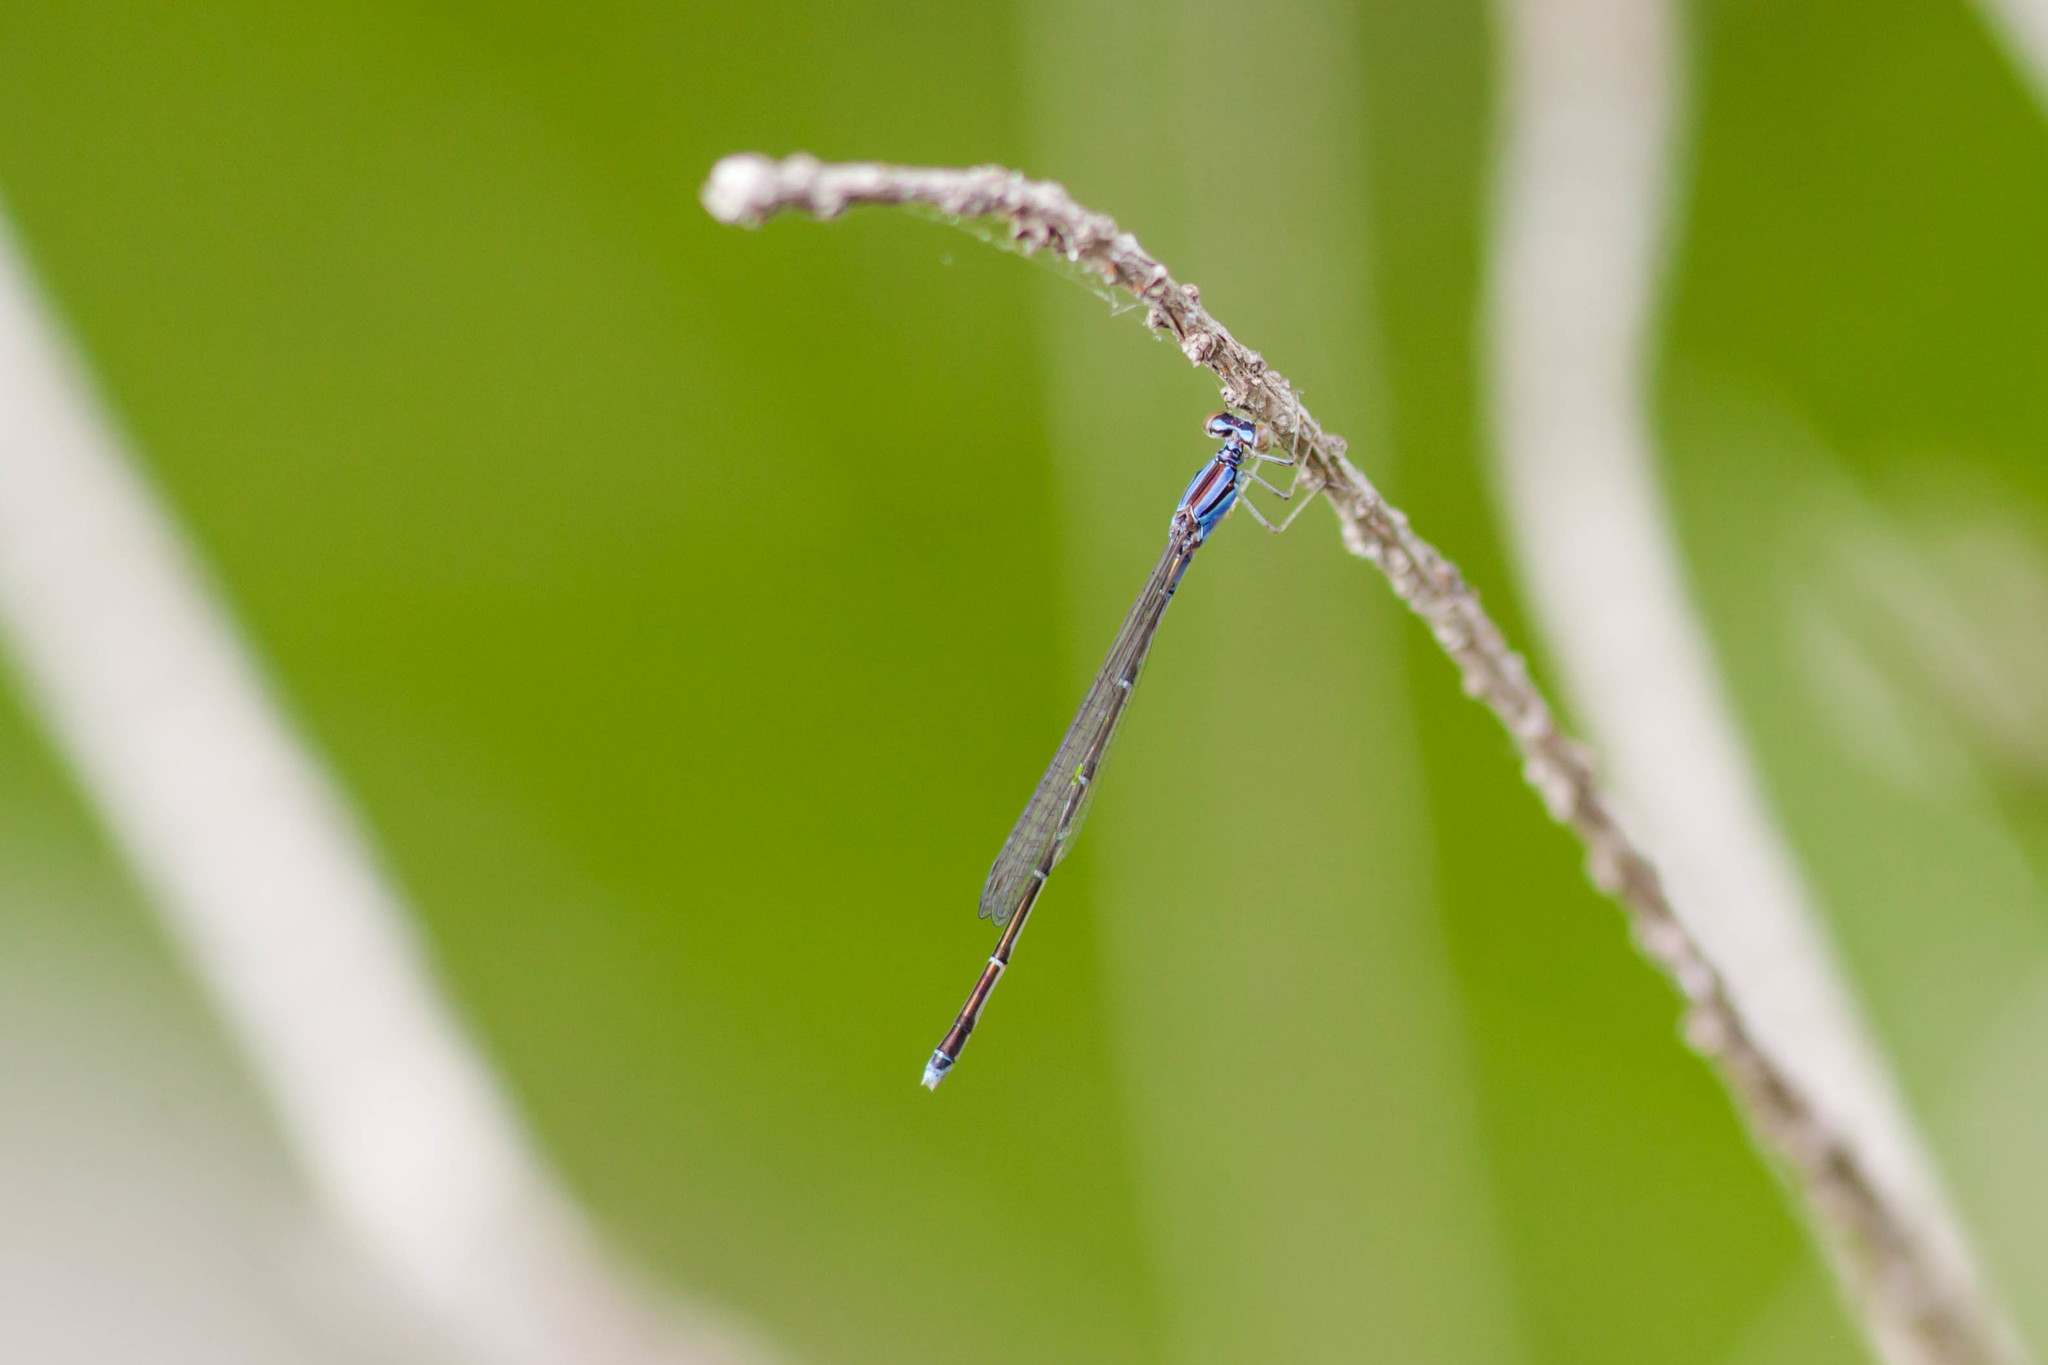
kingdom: Animalia
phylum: Arthropoda
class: Insecta
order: Odonata
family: Coenagrionidae
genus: Enallagma
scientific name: Enallagma signatum
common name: Orange bluet
